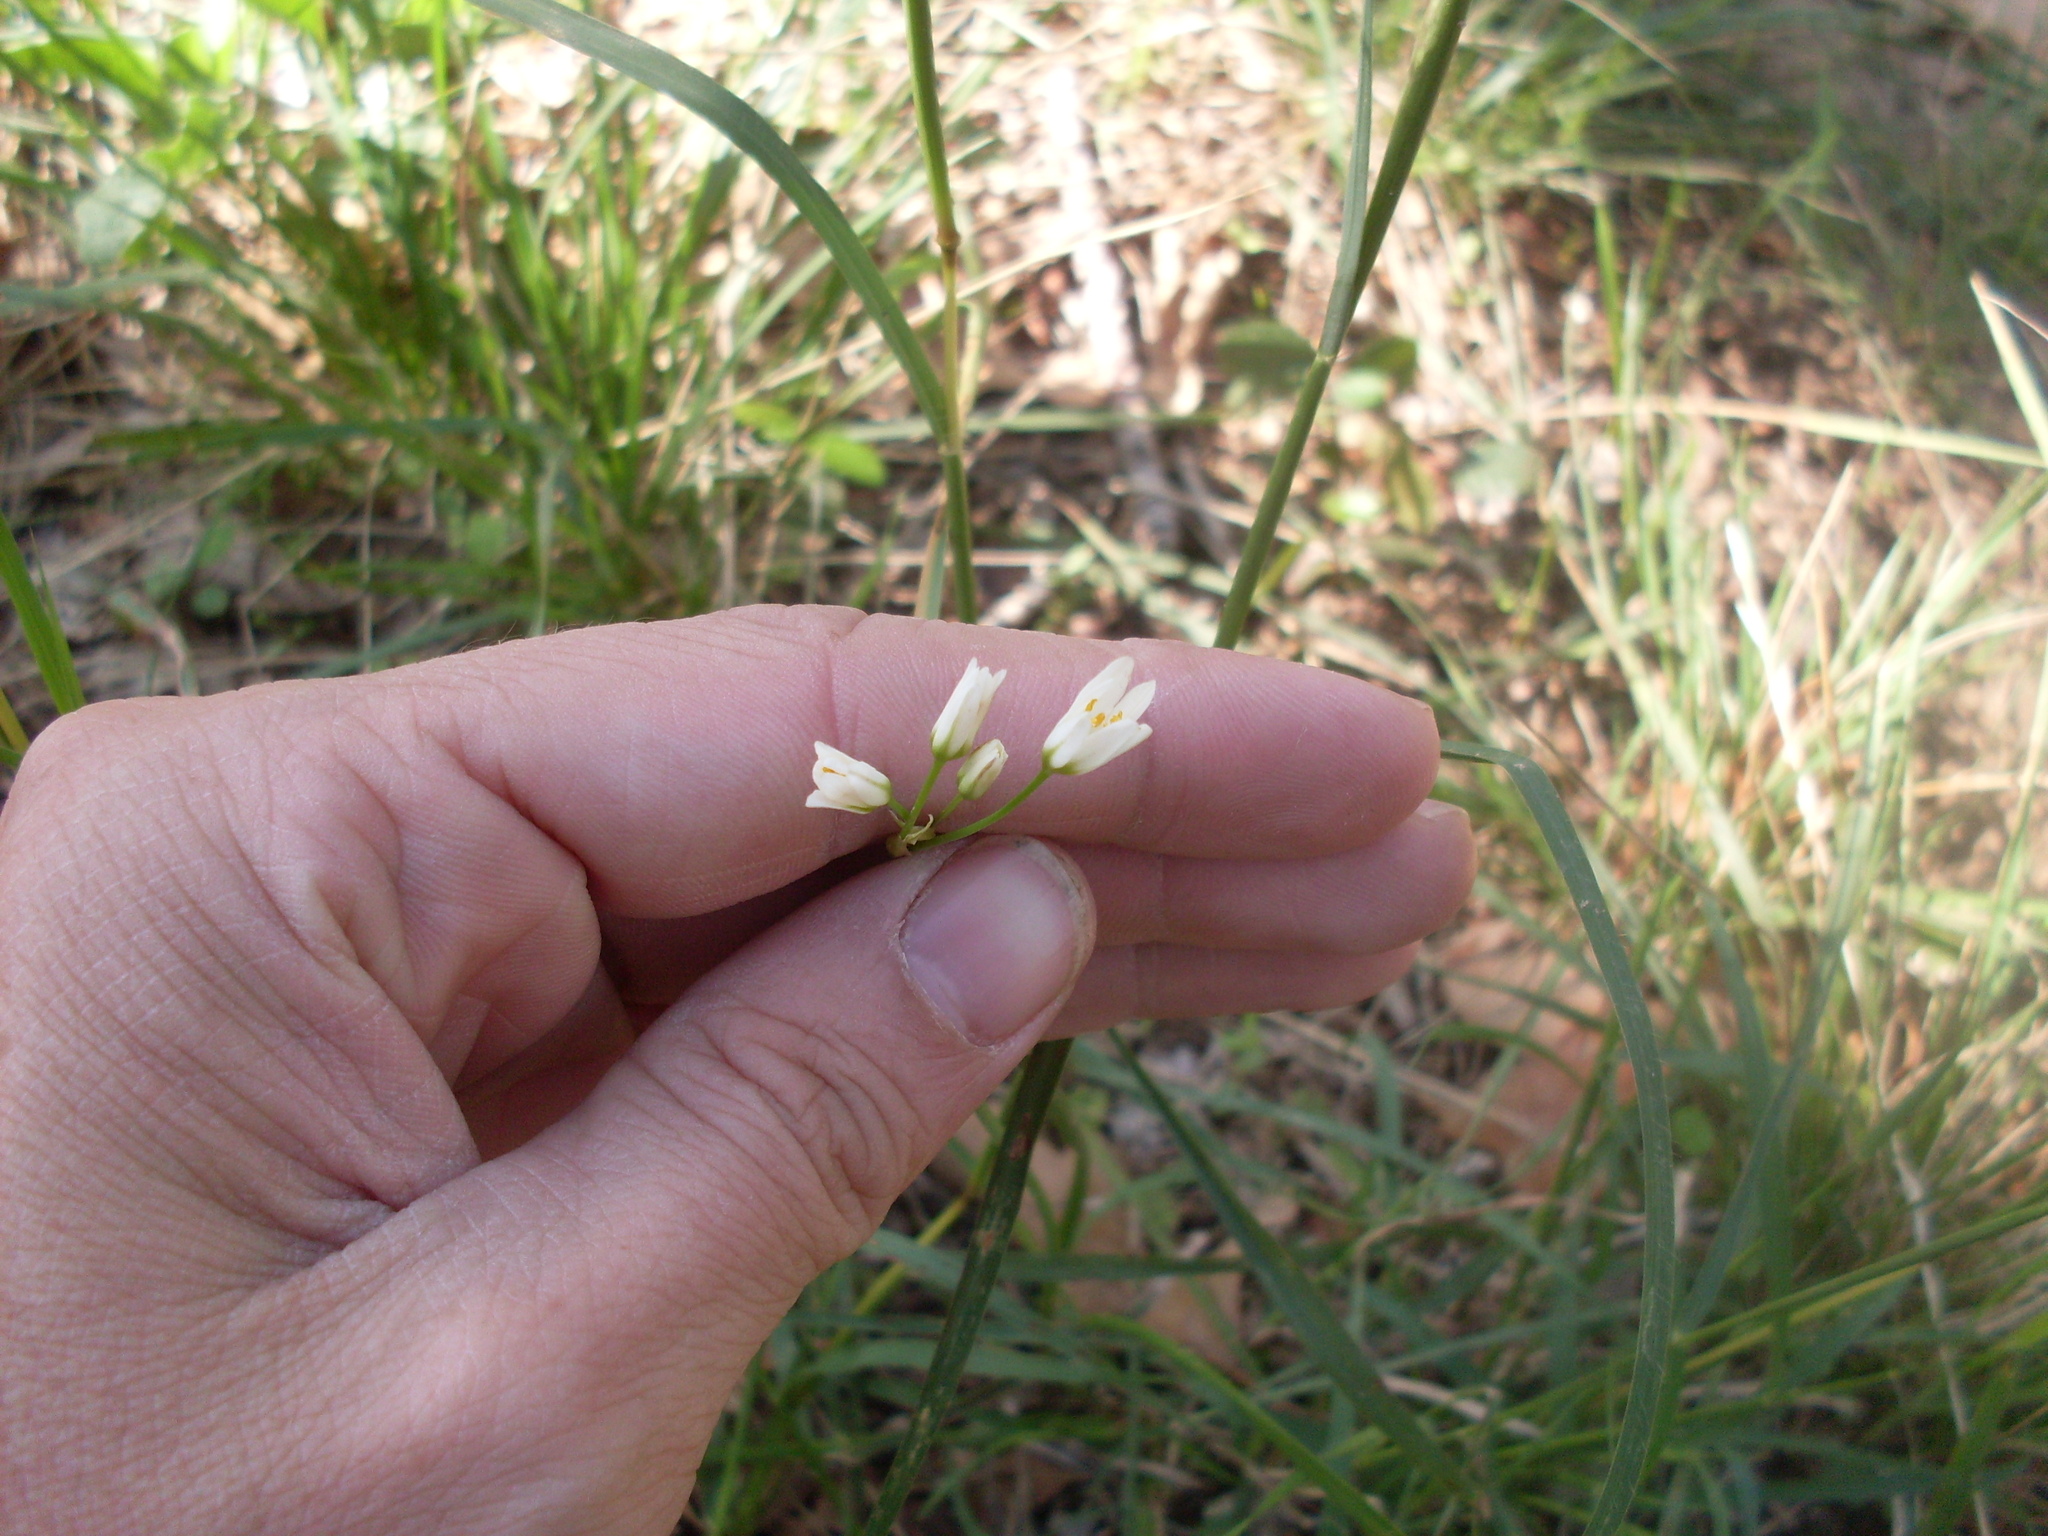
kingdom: Plantae
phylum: Tracheophyta
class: Liliopsida
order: Asparagales
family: Amaryllidaceae
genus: Nothoscordum
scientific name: Nothoscordum bivalve
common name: Crow-poison
